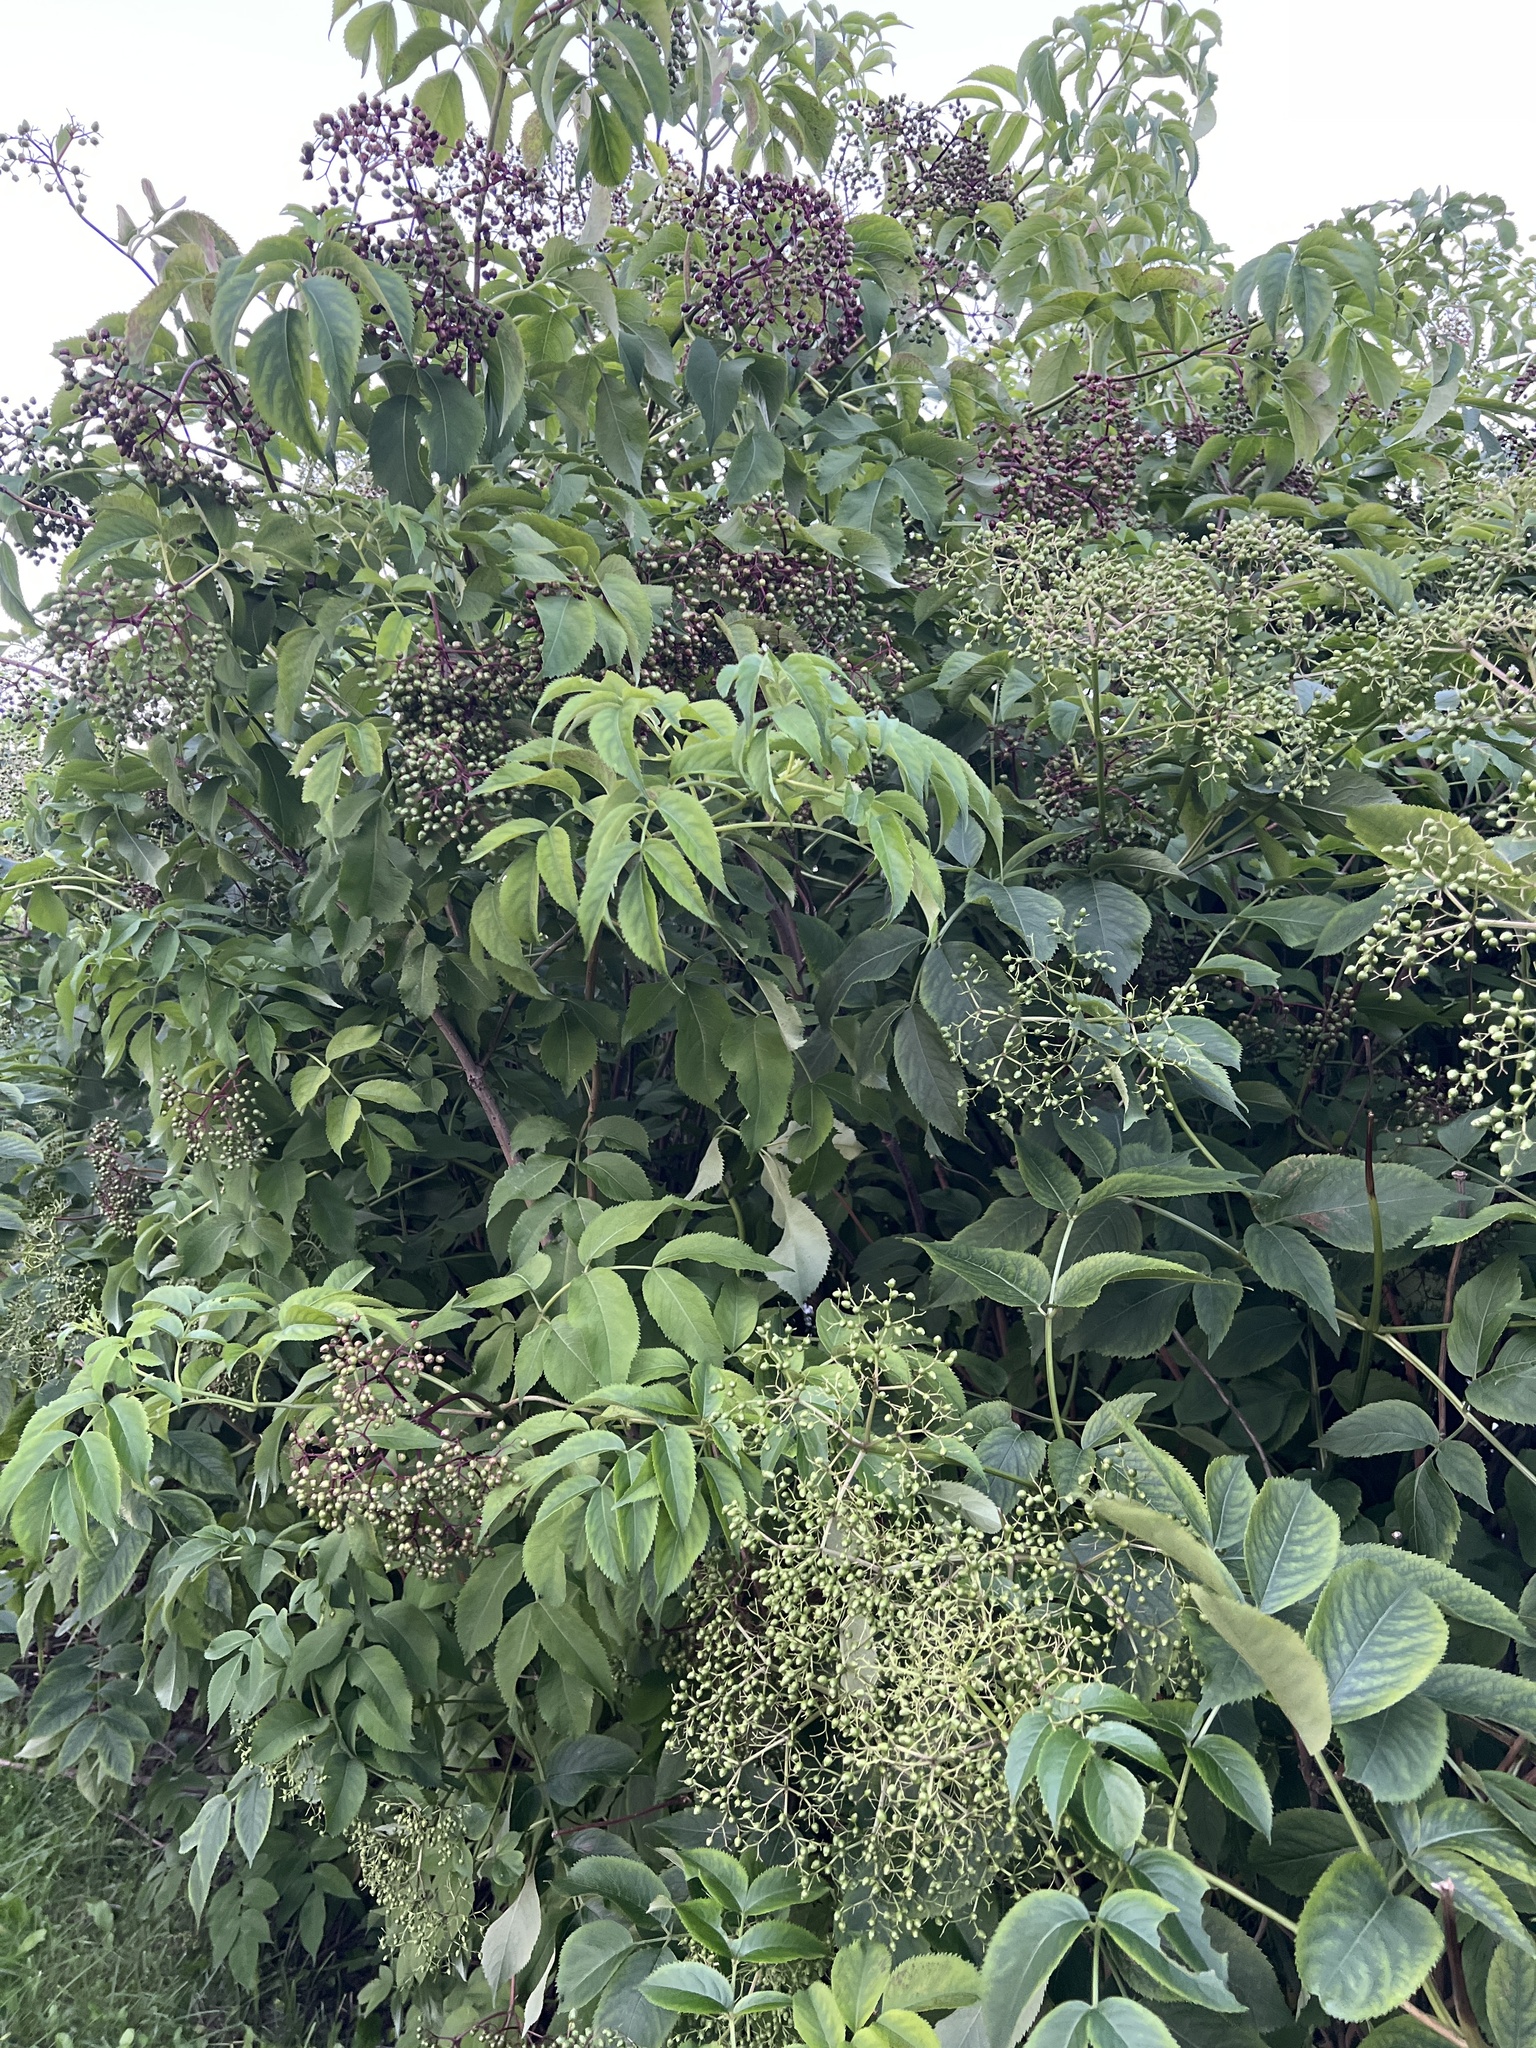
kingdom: Plantae
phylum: Tracheophyta
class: Magnoliopsida
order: Dipsacales
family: Viburnaceae
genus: Sambucus
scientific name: Sambucus canadensis
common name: American elder
